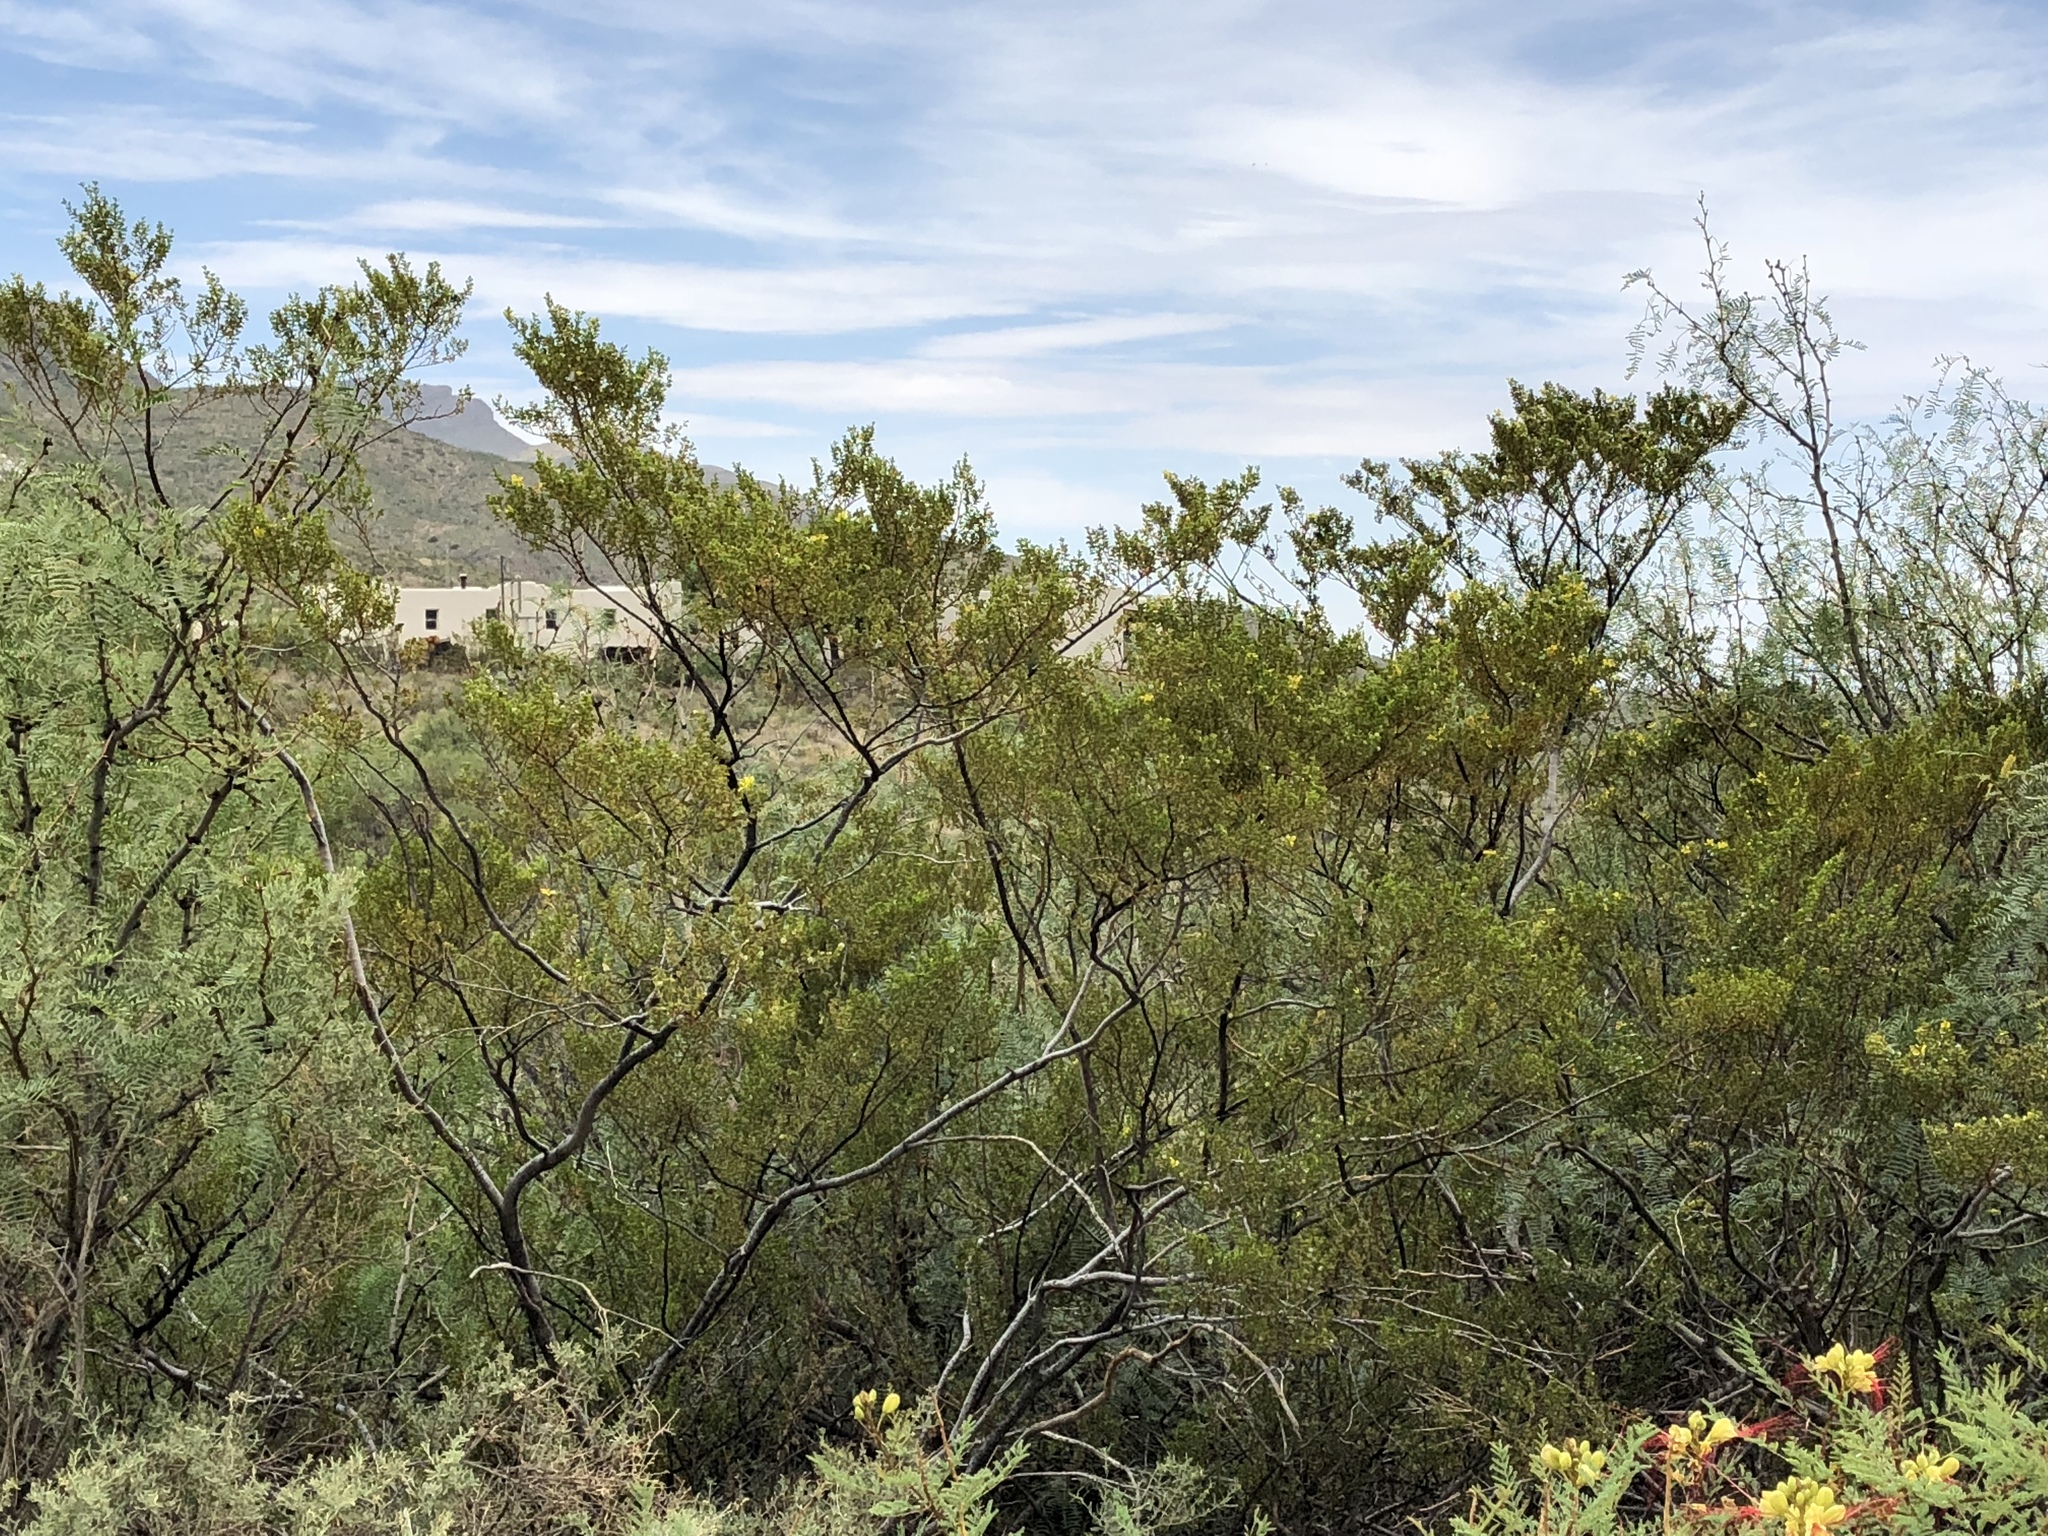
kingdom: Plantae
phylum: Tracheophyta
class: Magnoliopsida
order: Zygophyllales
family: Zygophyllaceae
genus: Larrea
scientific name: Larrea tridentata
